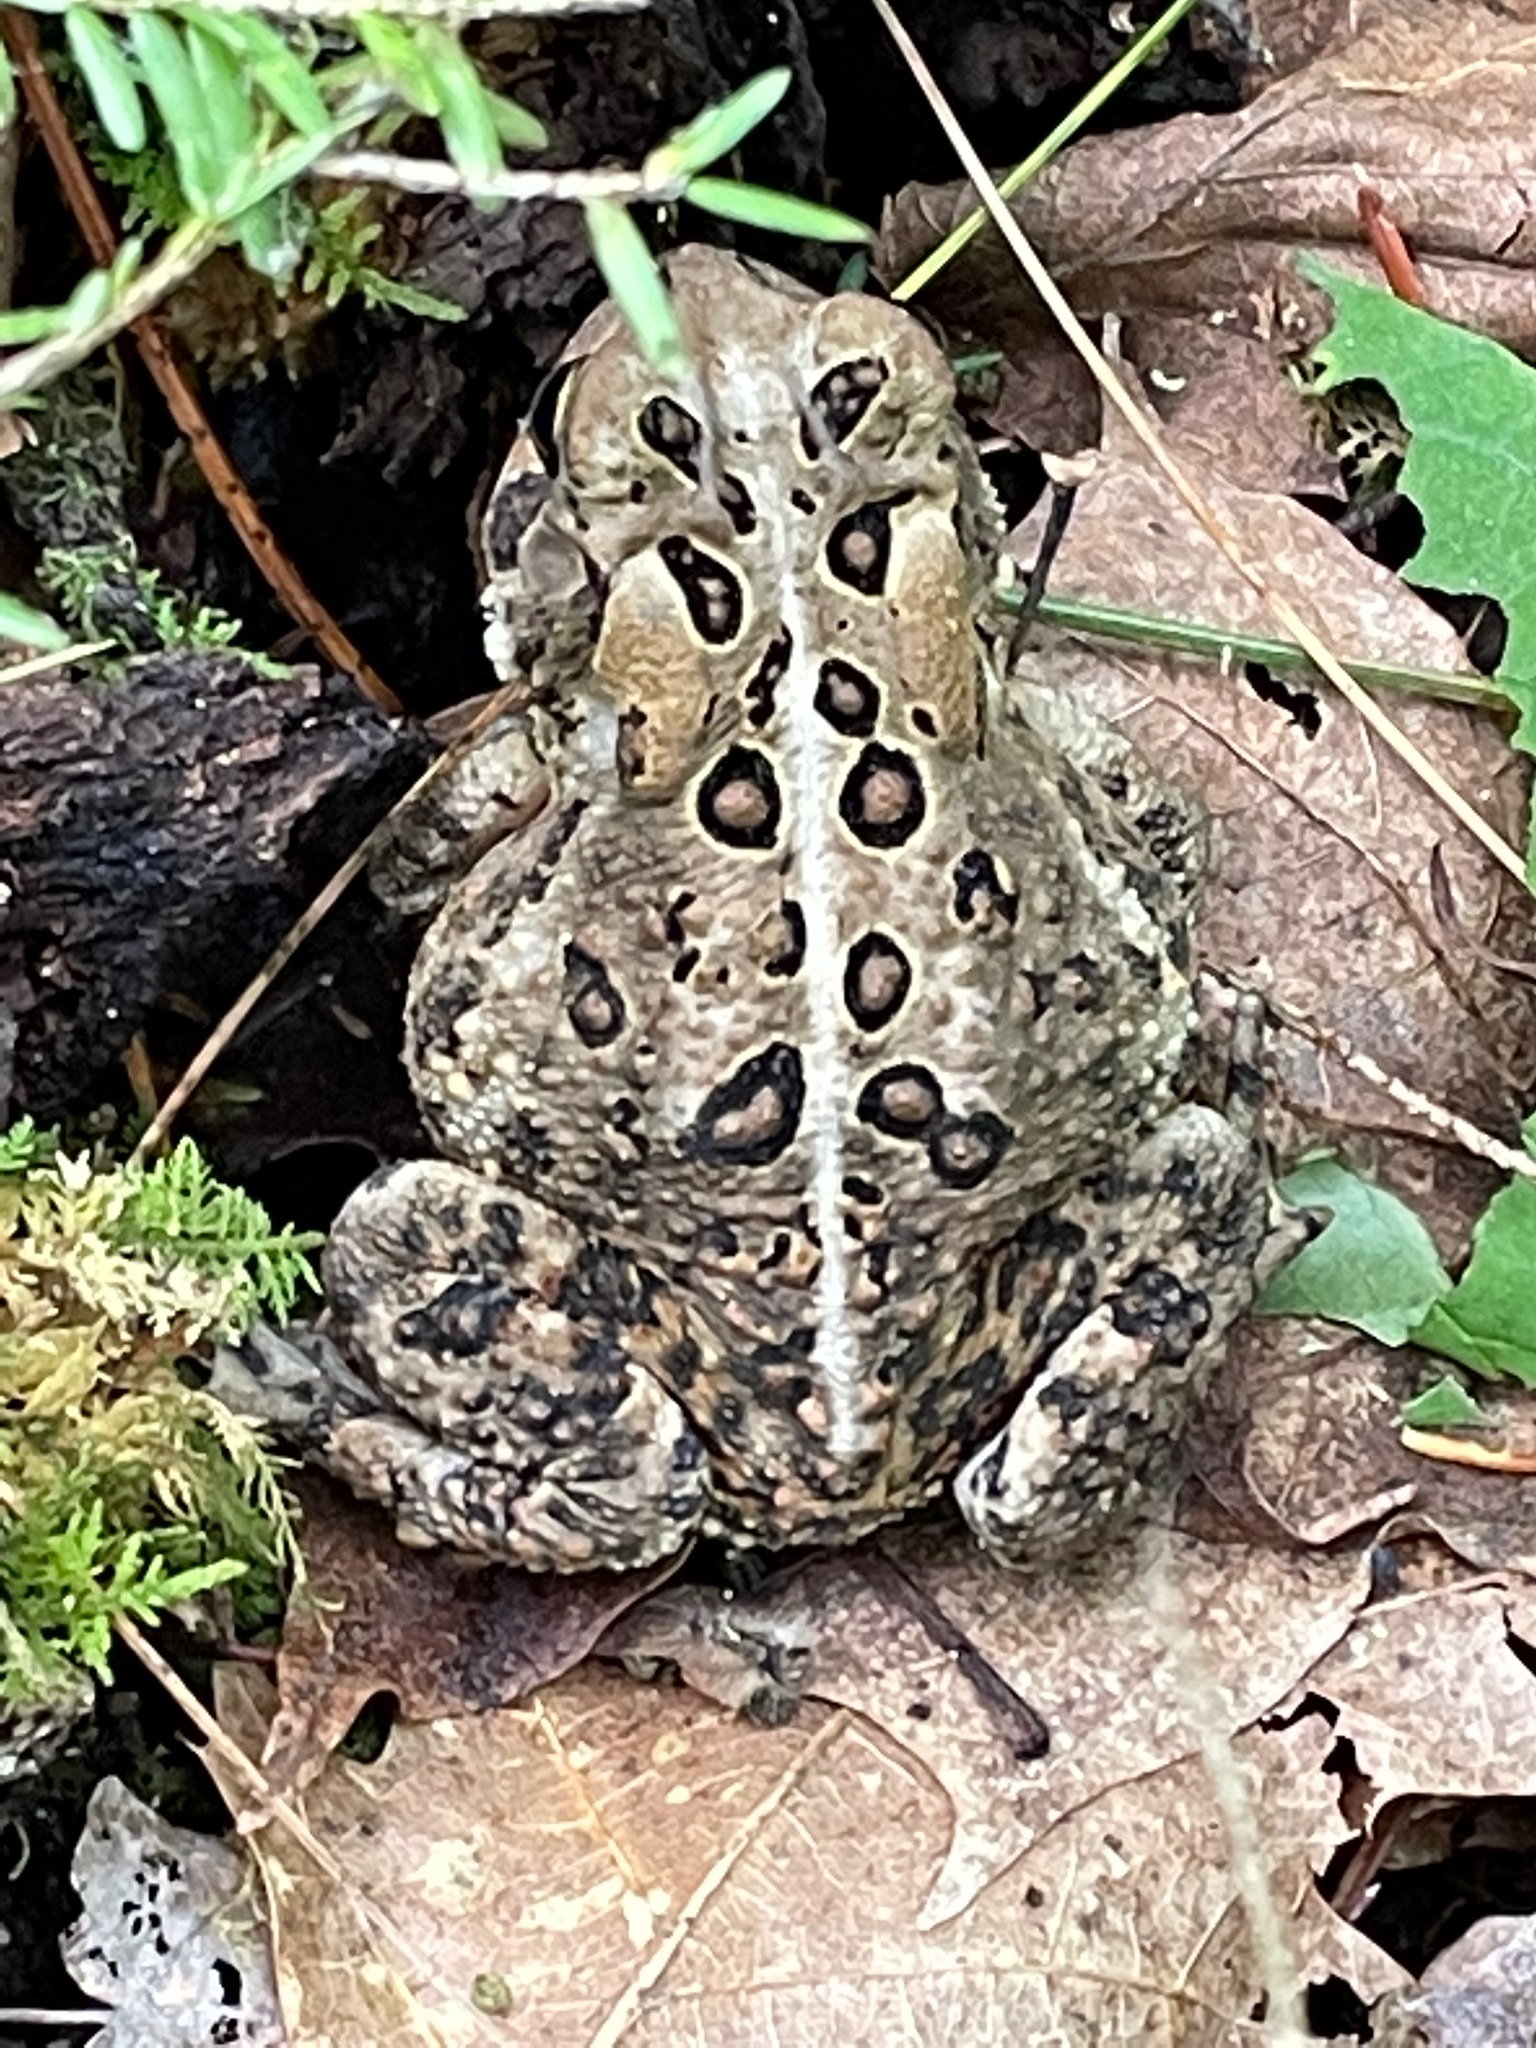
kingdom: Animalia
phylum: Chordata
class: Amphibia
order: Anura
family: Bufonidae
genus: Anaxyrus
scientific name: Anaxyrus americanus
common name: American toad
